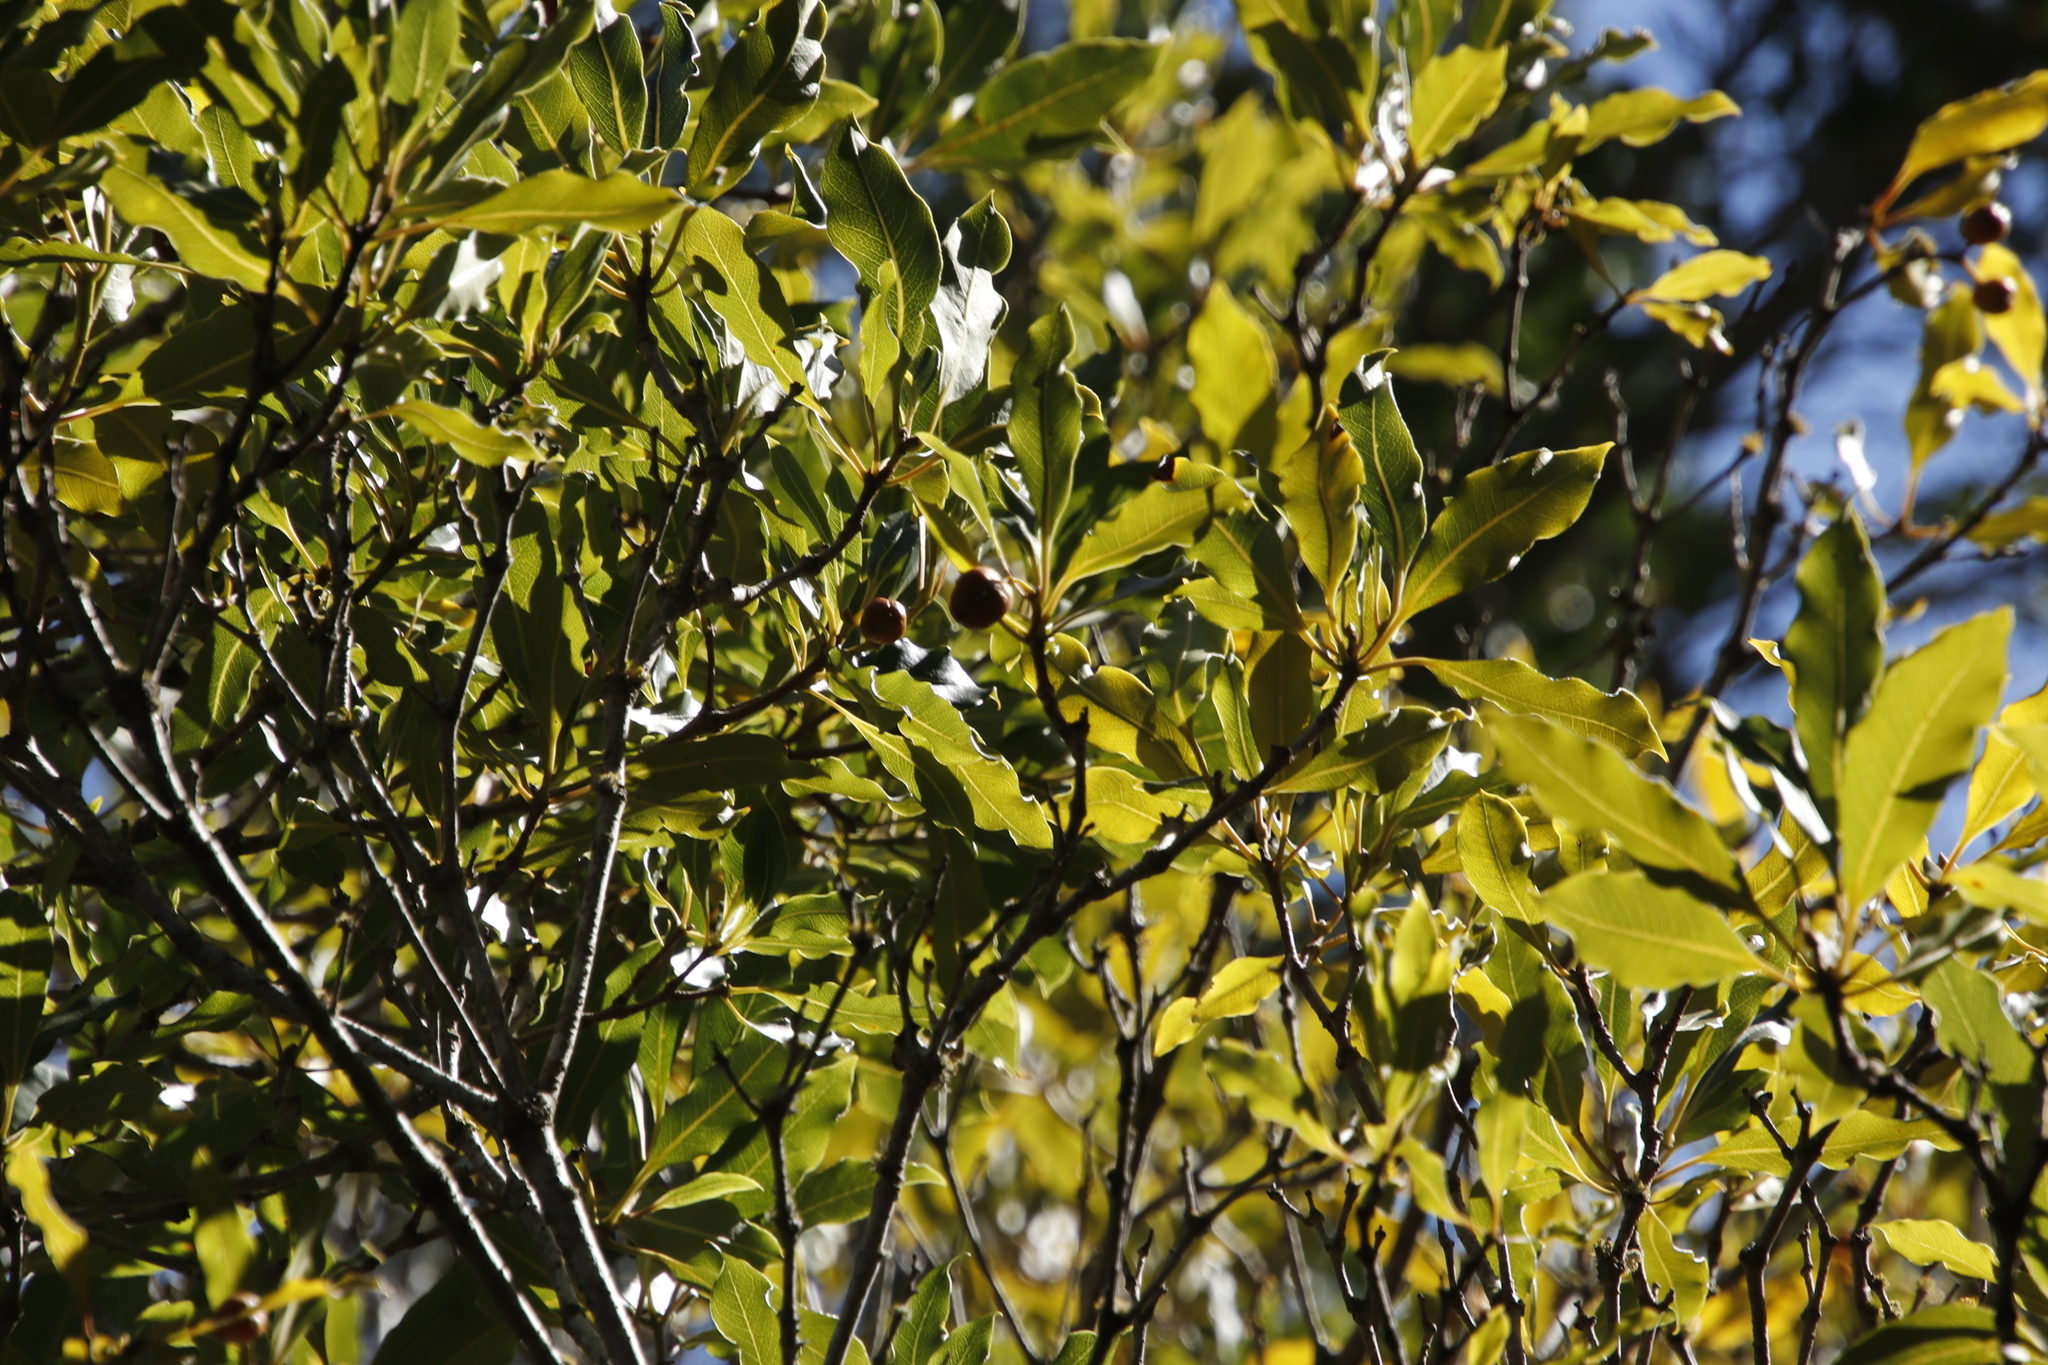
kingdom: Plantae
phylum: Tracheophyta
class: Magnoliopsida
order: Apiales
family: Pittosporaceae
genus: Pittosporum
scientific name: Pittosporum undulatum
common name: Australian cheesewood
